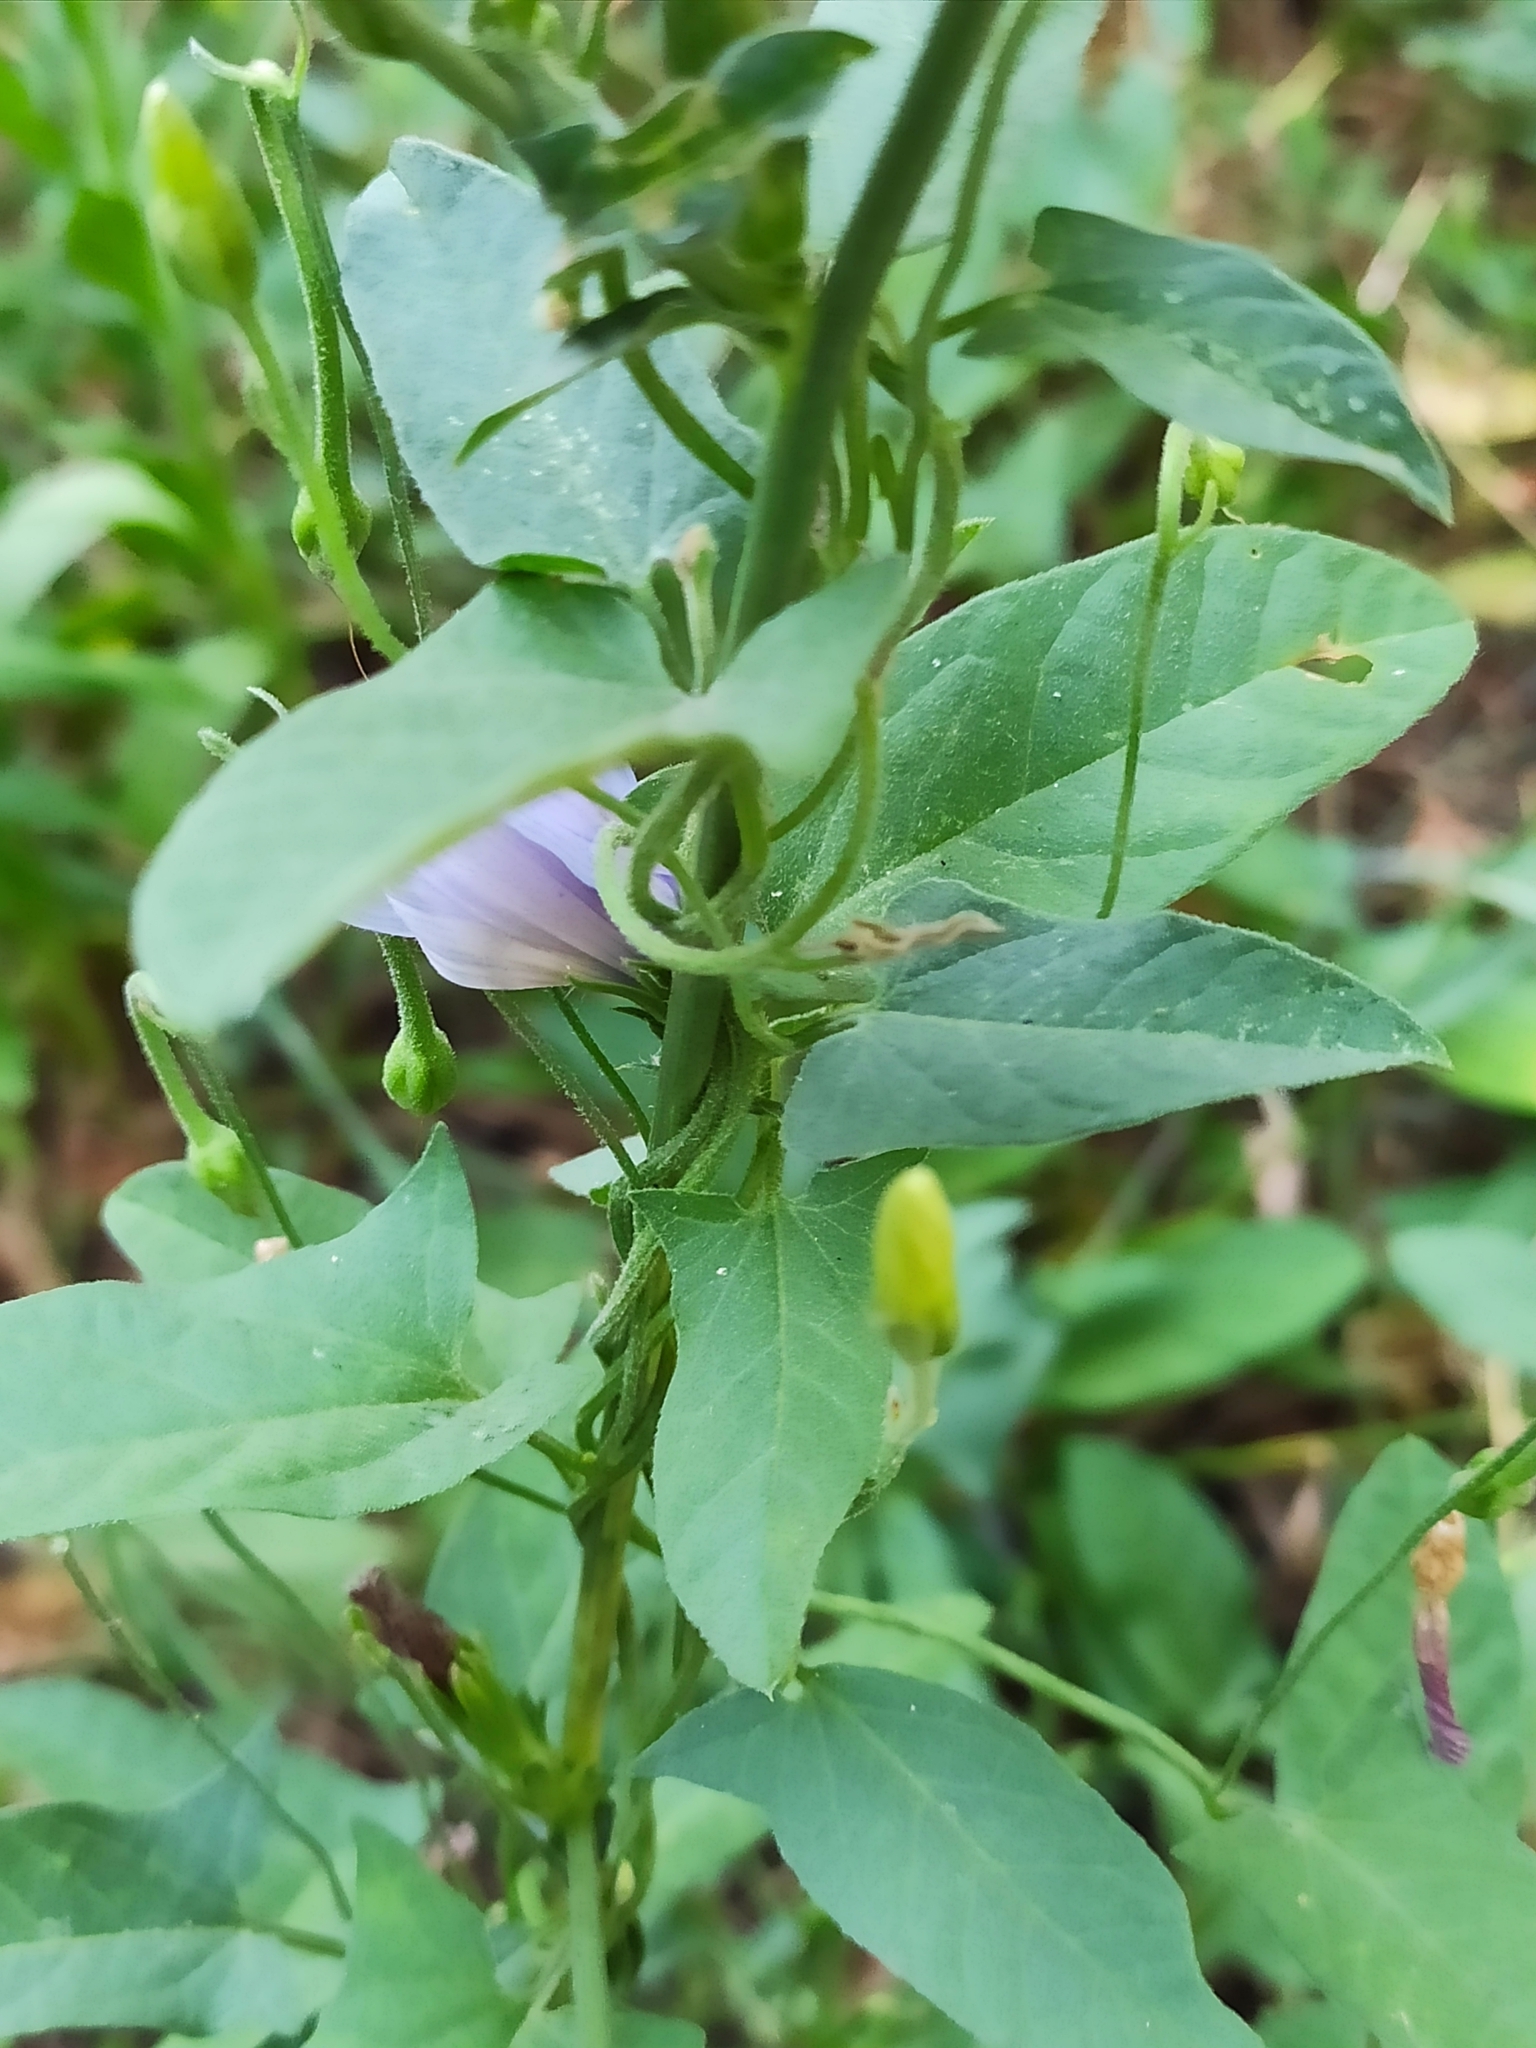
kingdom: Plantae
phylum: Tracheophyta
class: Magnoliopsida
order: Solanales
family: Convolvulaceae
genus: Convolvulus
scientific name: Convolvulus arvensis
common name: Field bindweed
